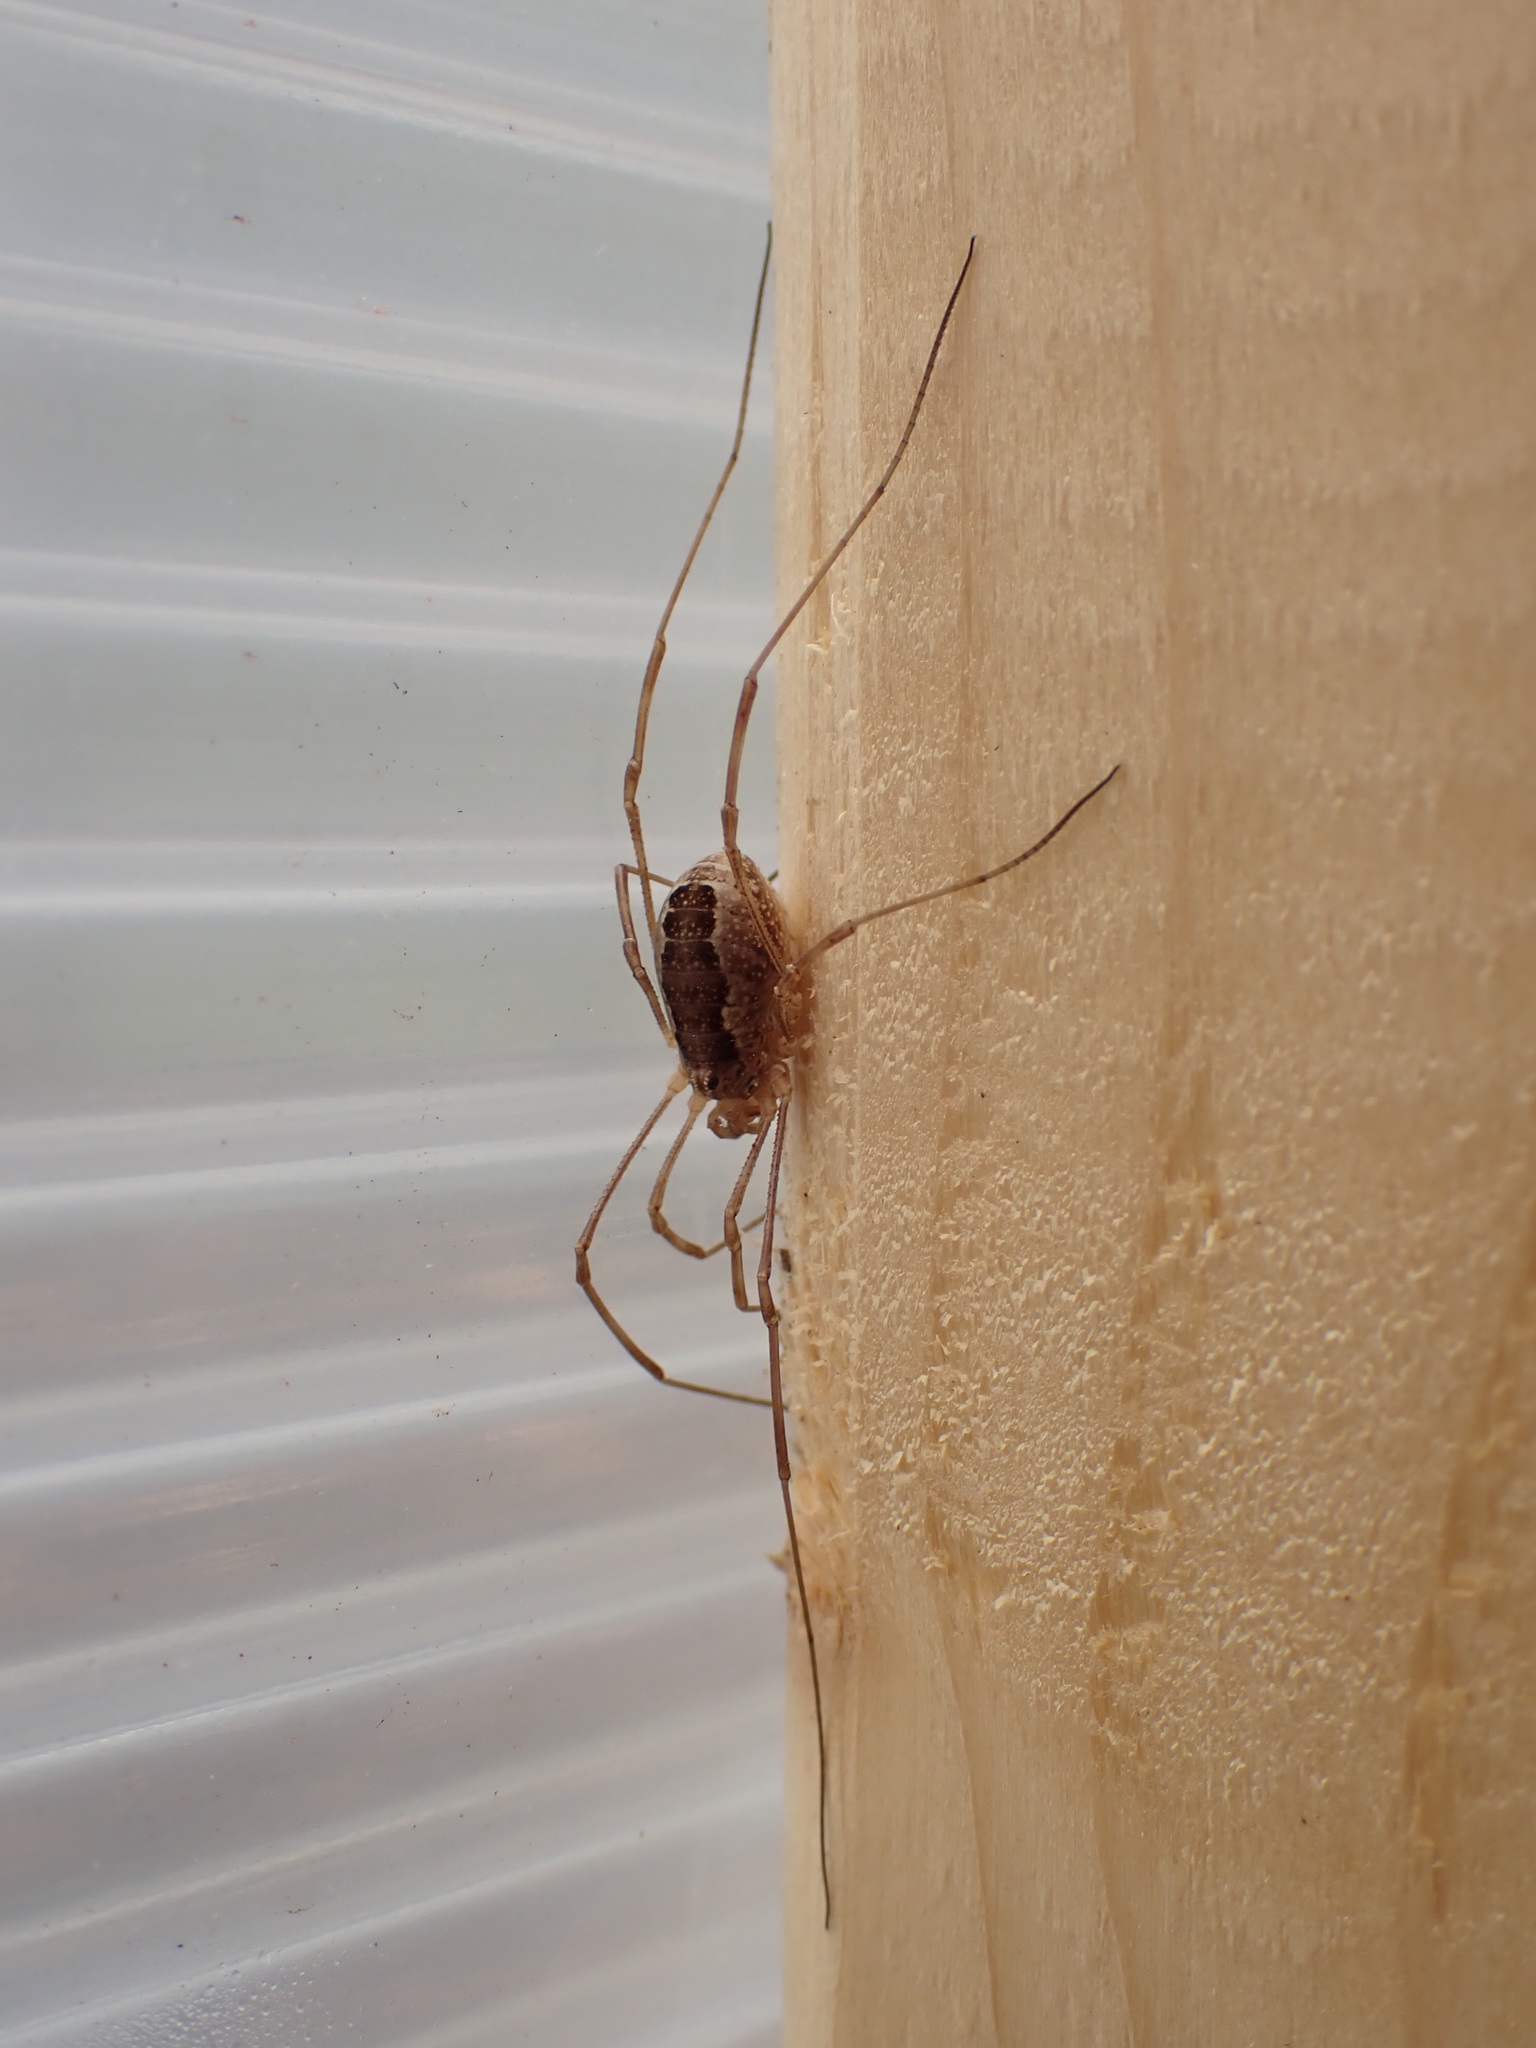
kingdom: Animalia
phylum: Arthropoda
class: Arachnida
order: Opiliones
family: Phalangiidae
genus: Rilaena
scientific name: Rilaena triangularis
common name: Spring harvestman
